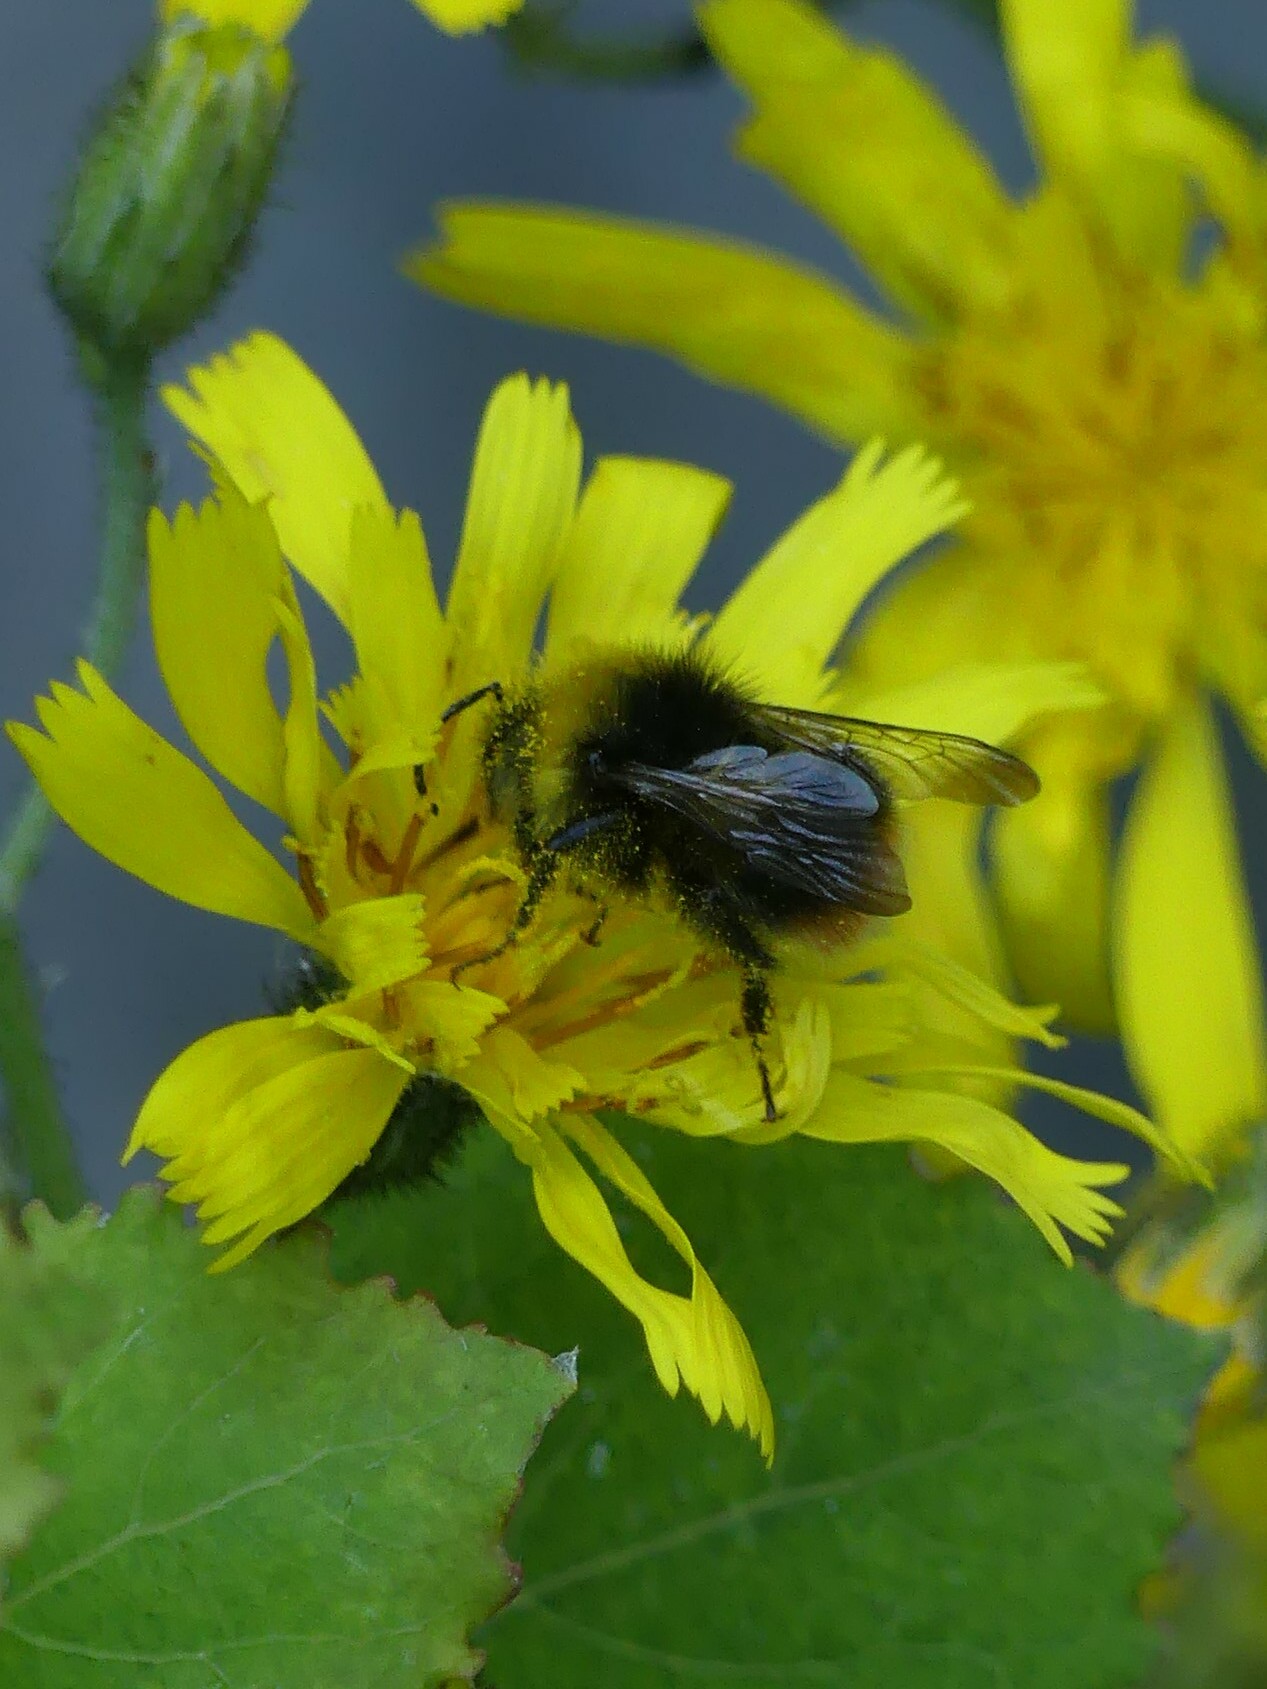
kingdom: Animalia
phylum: Arthropoda
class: Insecta
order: Hymenoptera
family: Apidae
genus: Bombus
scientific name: Bombus pratorum
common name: Early humble-bee
